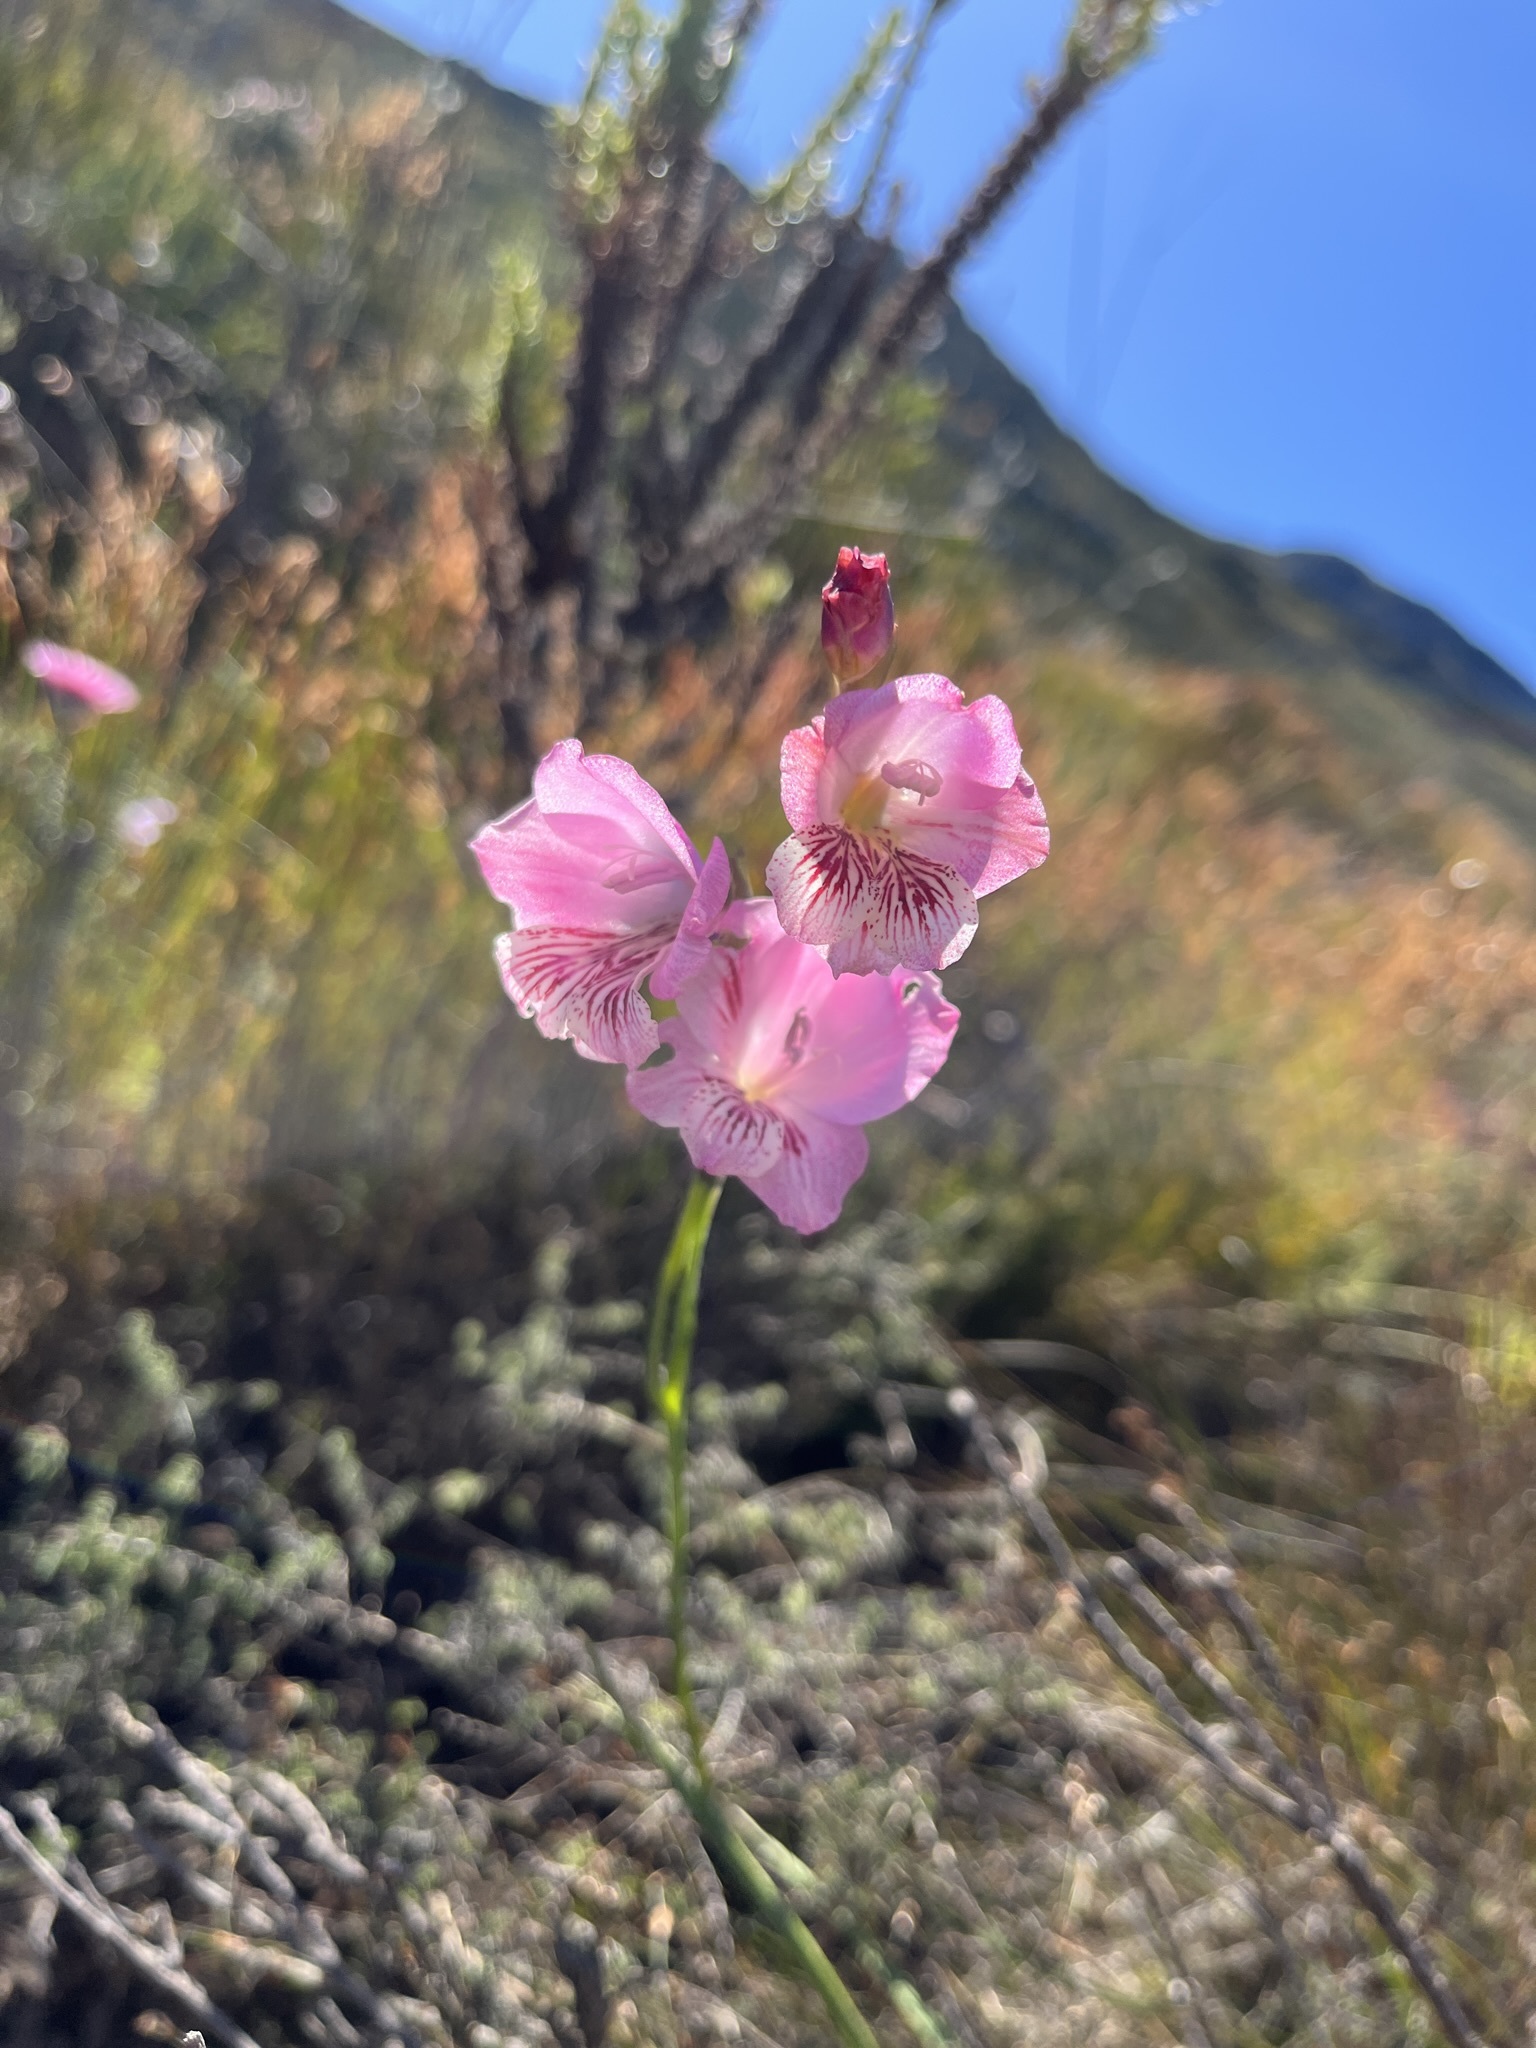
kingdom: Plantae
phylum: Tracheophyta
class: Liliopsida
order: Asparagales
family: Iridaceae
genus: Gladiolus
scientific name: Gladiolus hirsutus
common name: Small pink afrikaner
